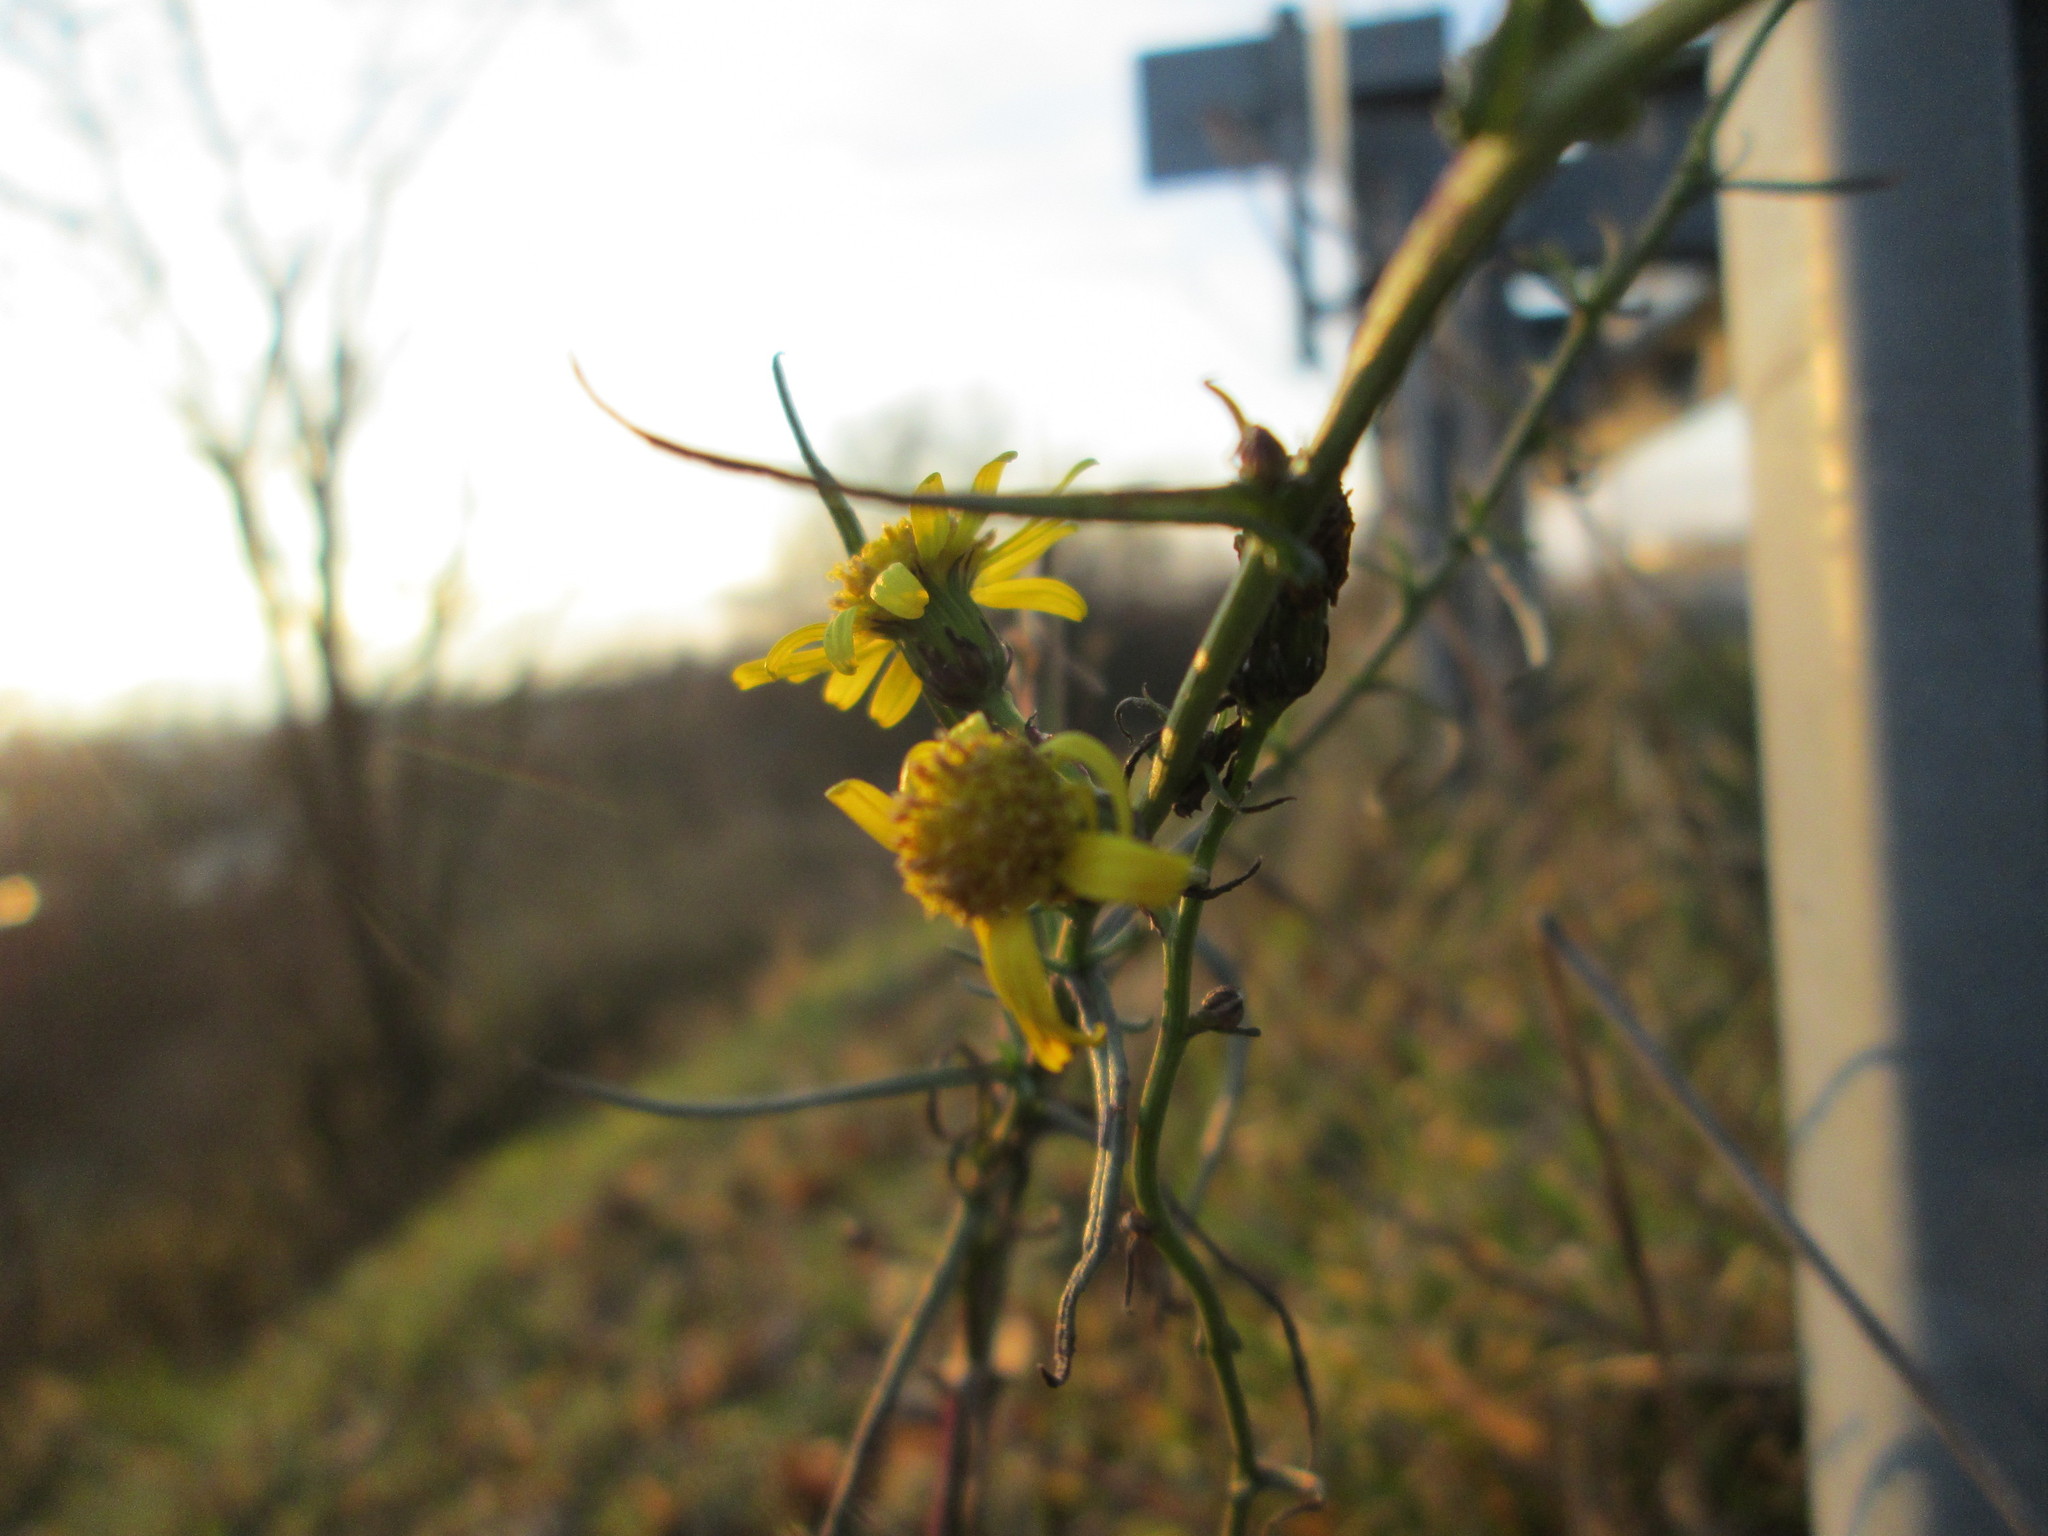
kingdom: Plantae
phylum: Tracheophyta
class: Magnoliopsida
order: Asterales
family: Asteraceae
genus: Senecio
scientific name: Senecio inaequidens
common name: Narrow-leaved ragwort
